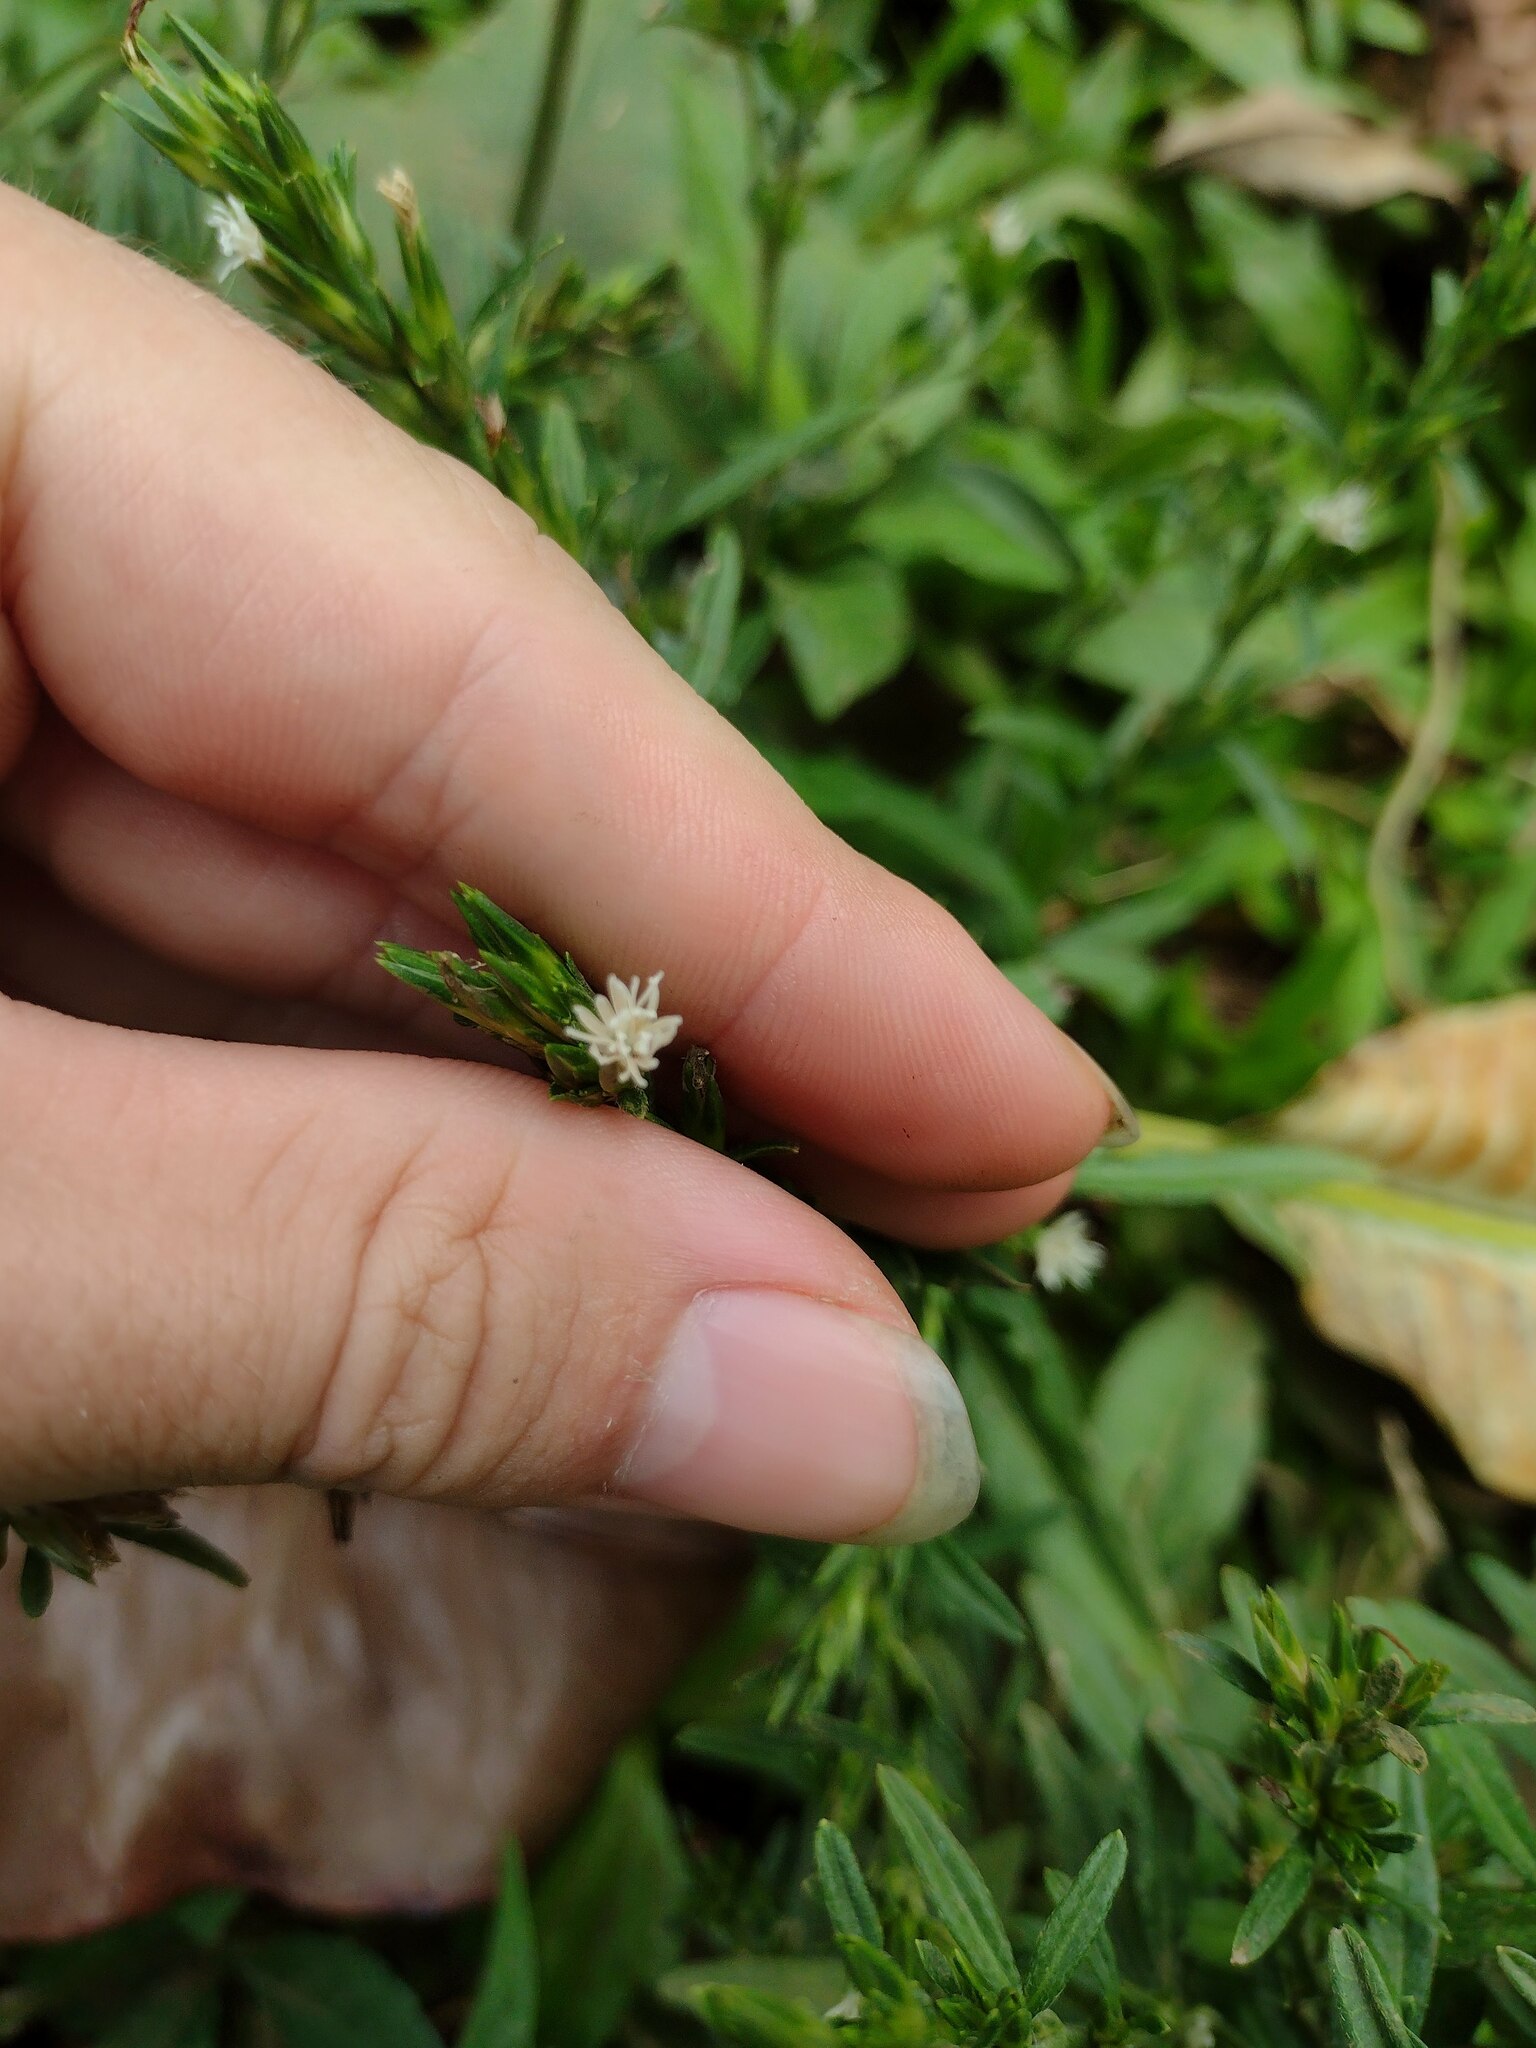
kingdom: Plantae
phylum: Tracheophyta
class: Magnoliopsida
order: Asterales
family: Asteraceae
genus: Pseudelephantopus
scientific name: Pseudelephantopus spicatus
